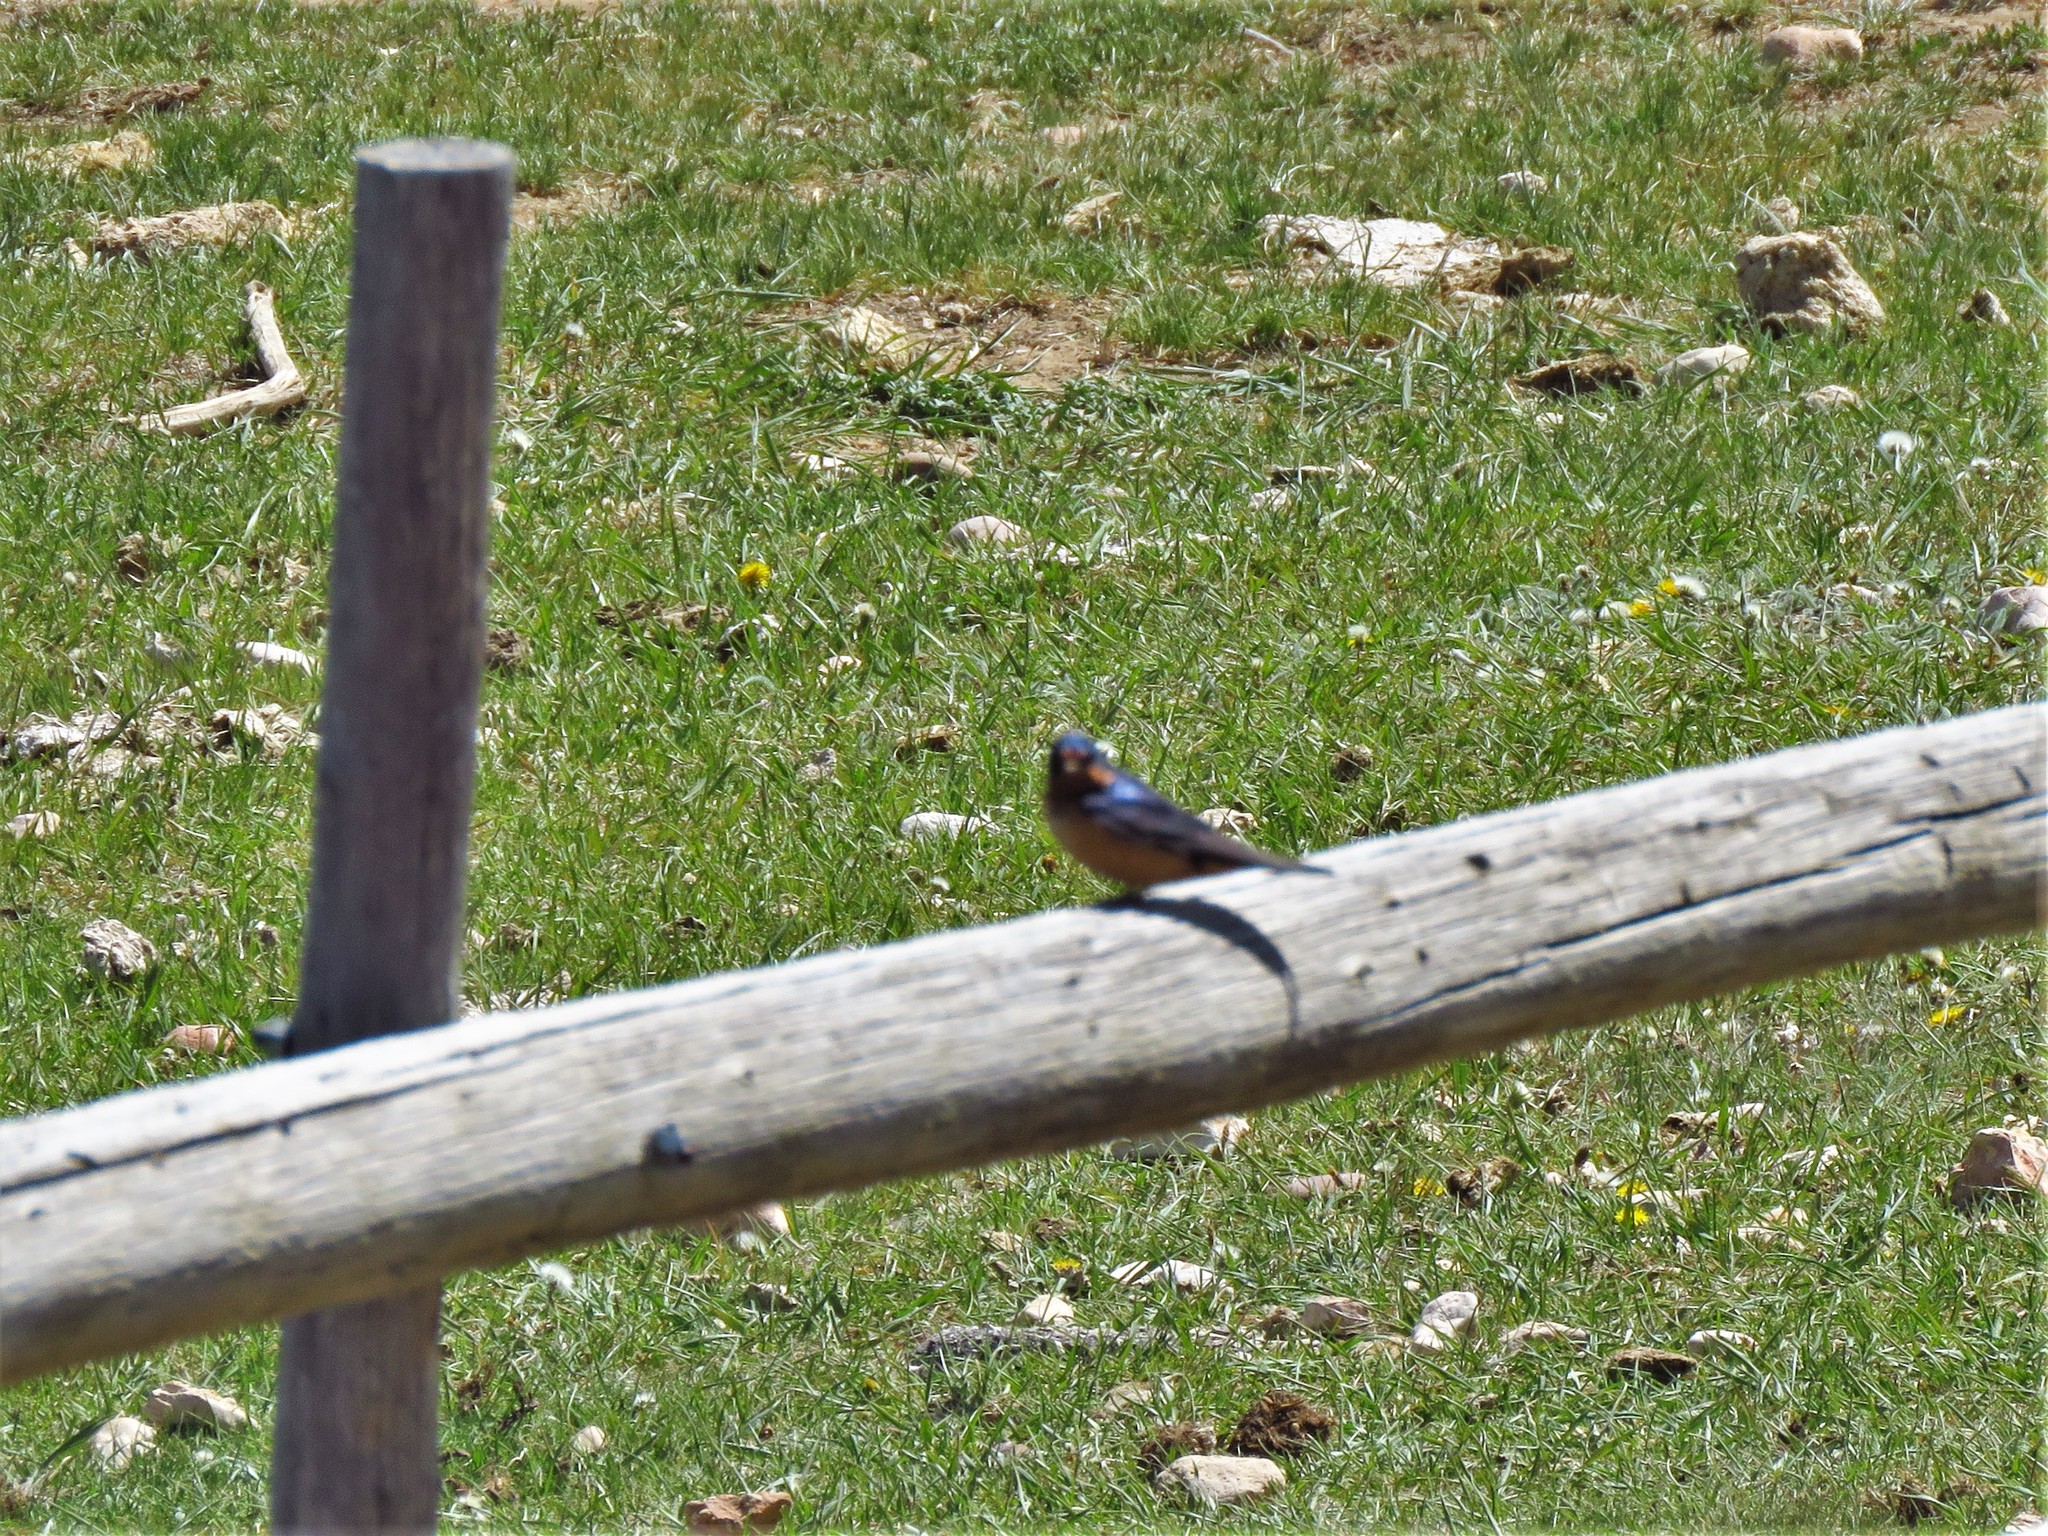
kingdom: Animalia
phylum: Chordata
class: Aves
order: Passeriformes
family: Hirundinidae
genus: Hirundo
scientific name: Hirundo rustica
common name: Barn swallow
